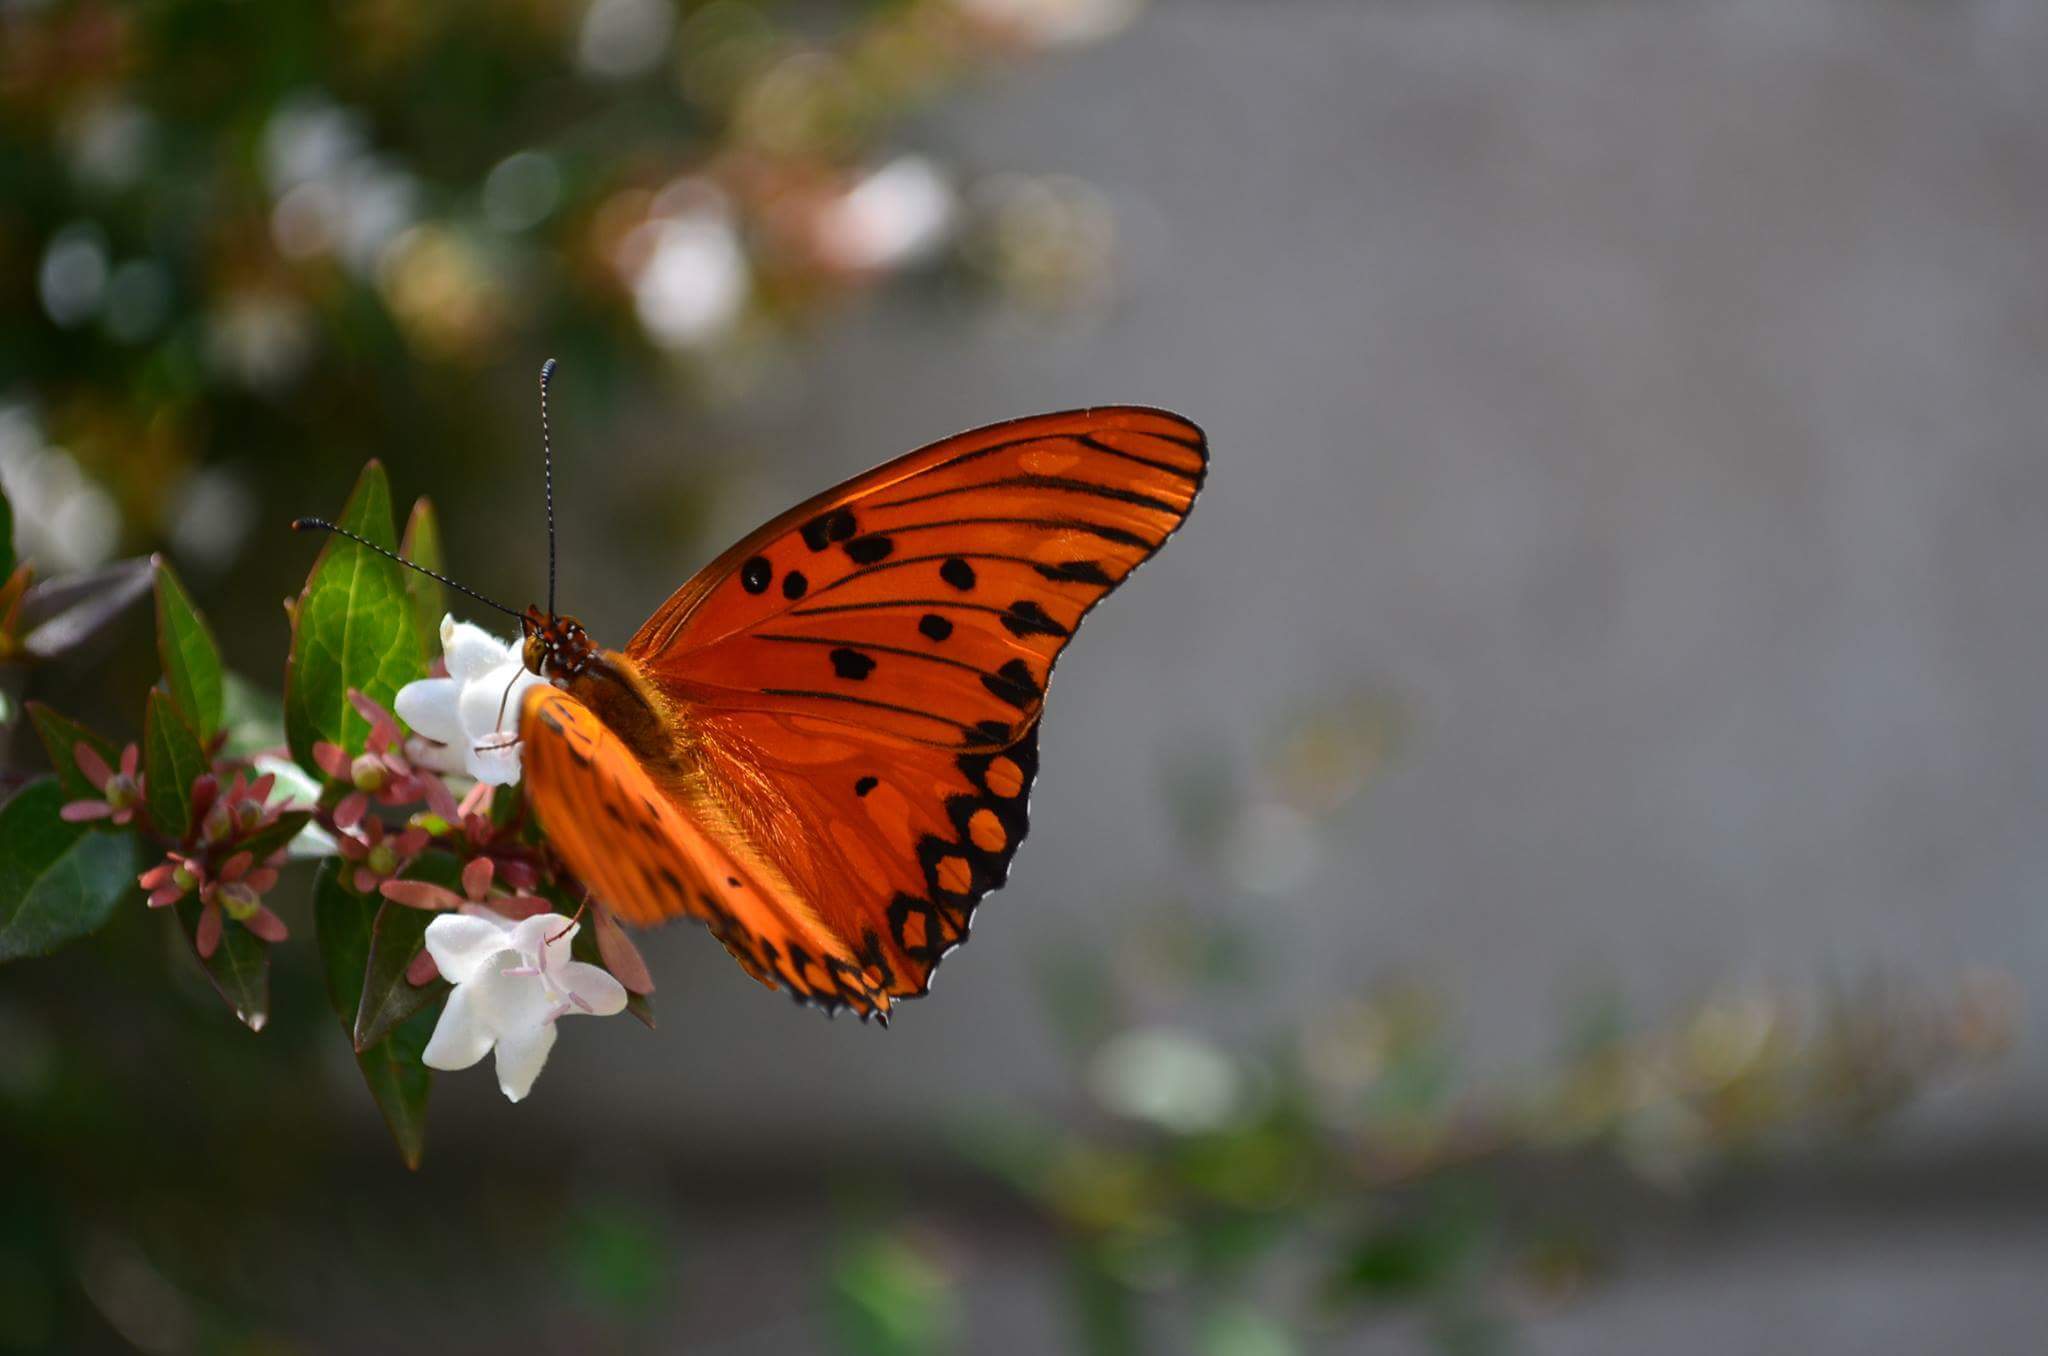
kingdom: Animalia
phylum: Arthropoda
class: Insecta
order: Lepidoptera
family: Nymphalidae
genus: Dione
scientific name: Dione vanillae
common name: Gulf fritillary
